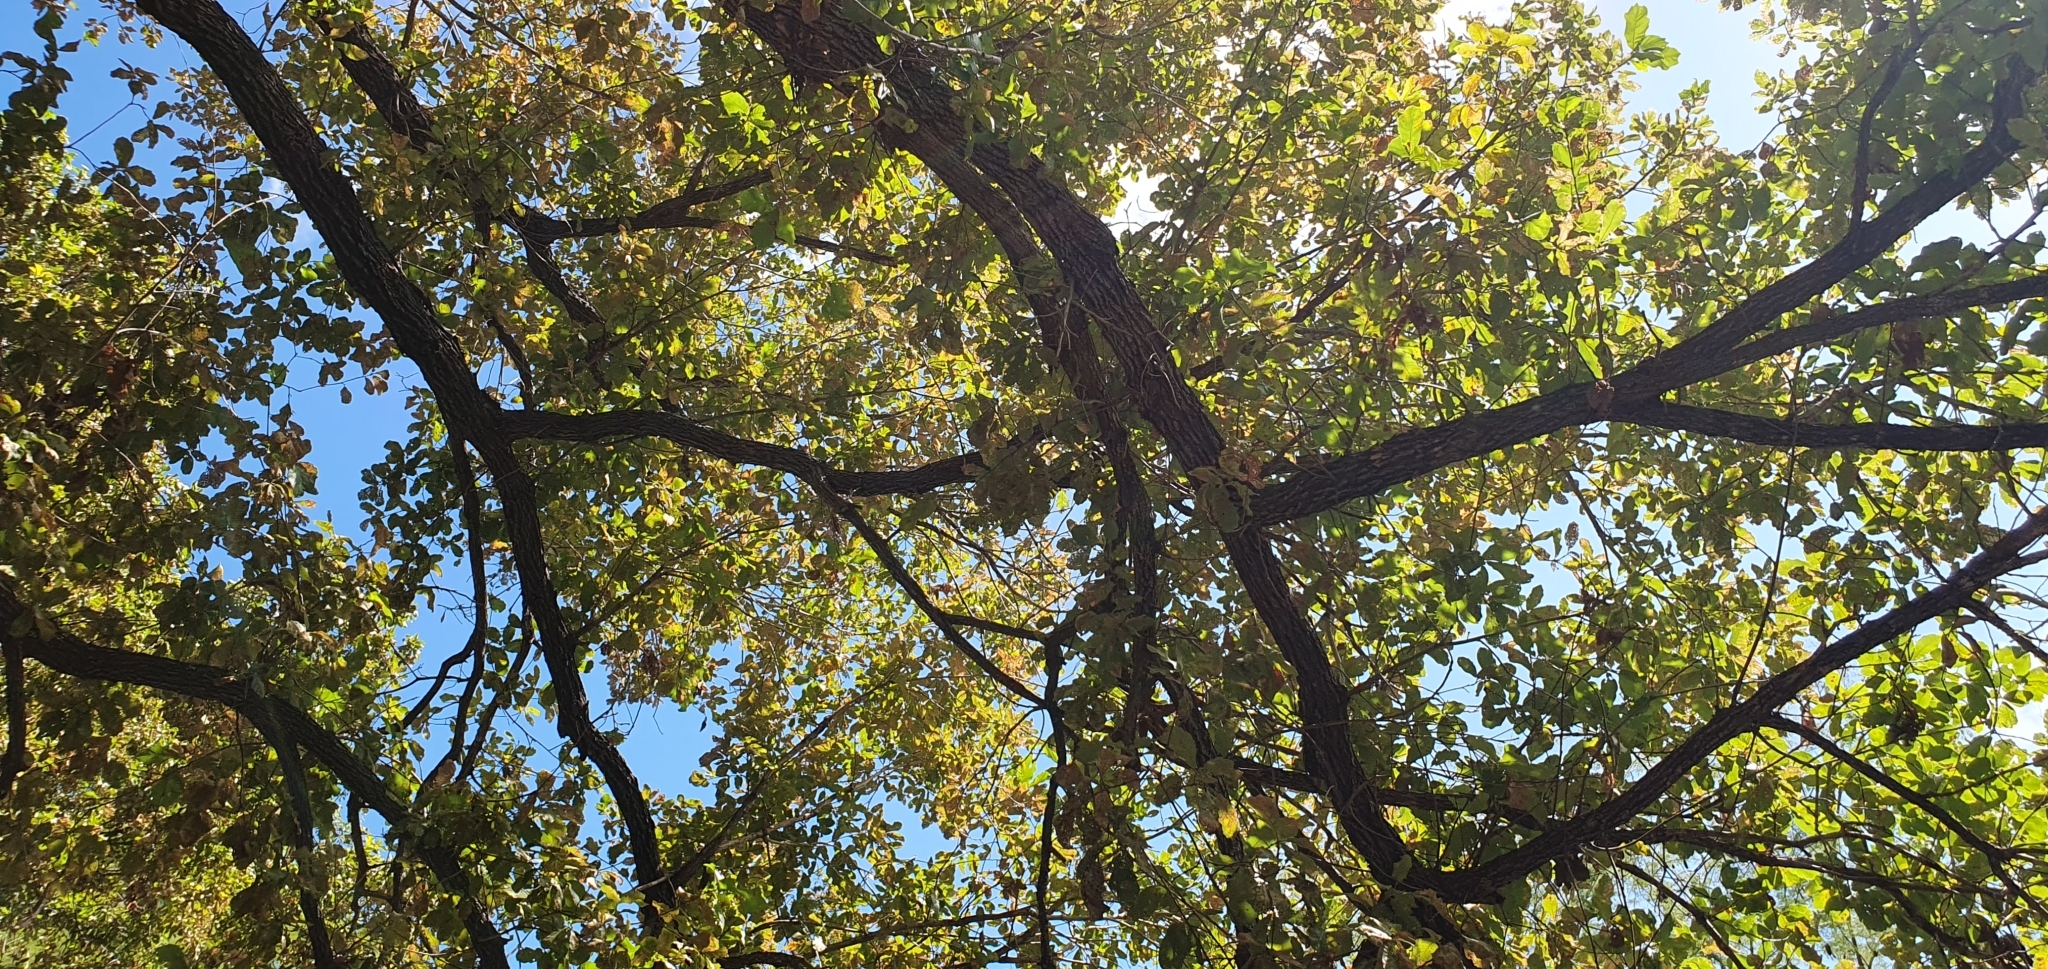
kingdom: Plantae
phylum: Tracheophyta
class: Magnoliopsida
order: Fagales
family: Fagaceae
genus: Quercus
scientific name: Quercus tuberculata
